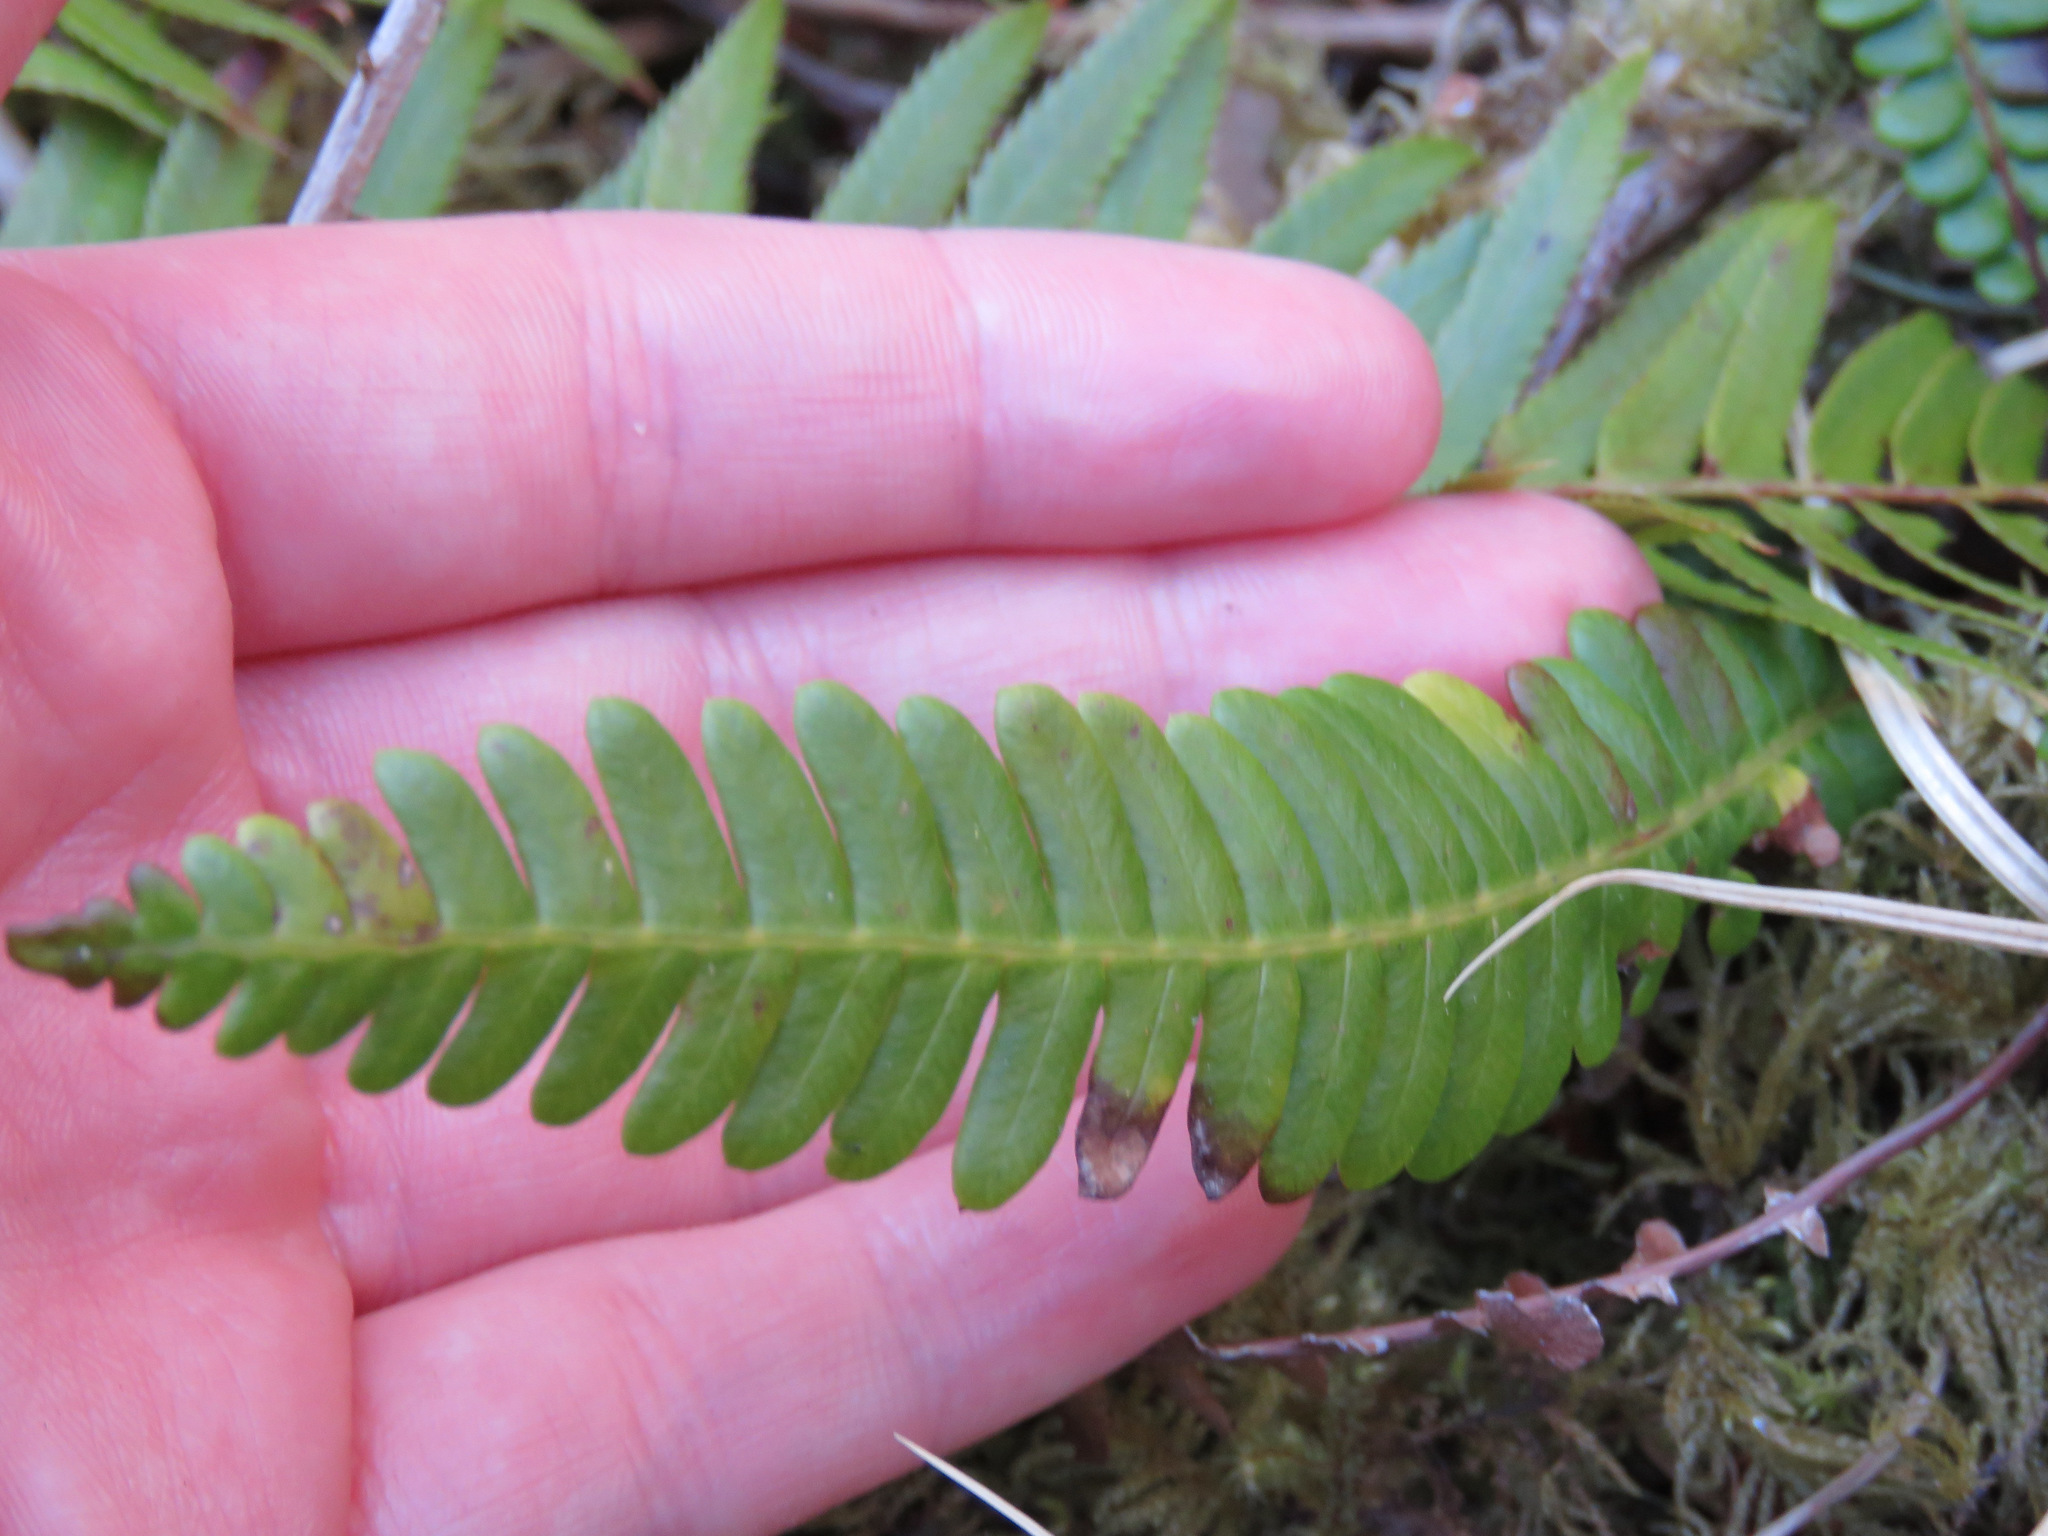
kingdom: Plantae
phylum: Tracheophyta
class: Polypodiopsida
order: Polypodiales
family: Blechnaceae
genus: Struthiopteris
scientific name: Struthiopteris spicant
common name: Deer fern
